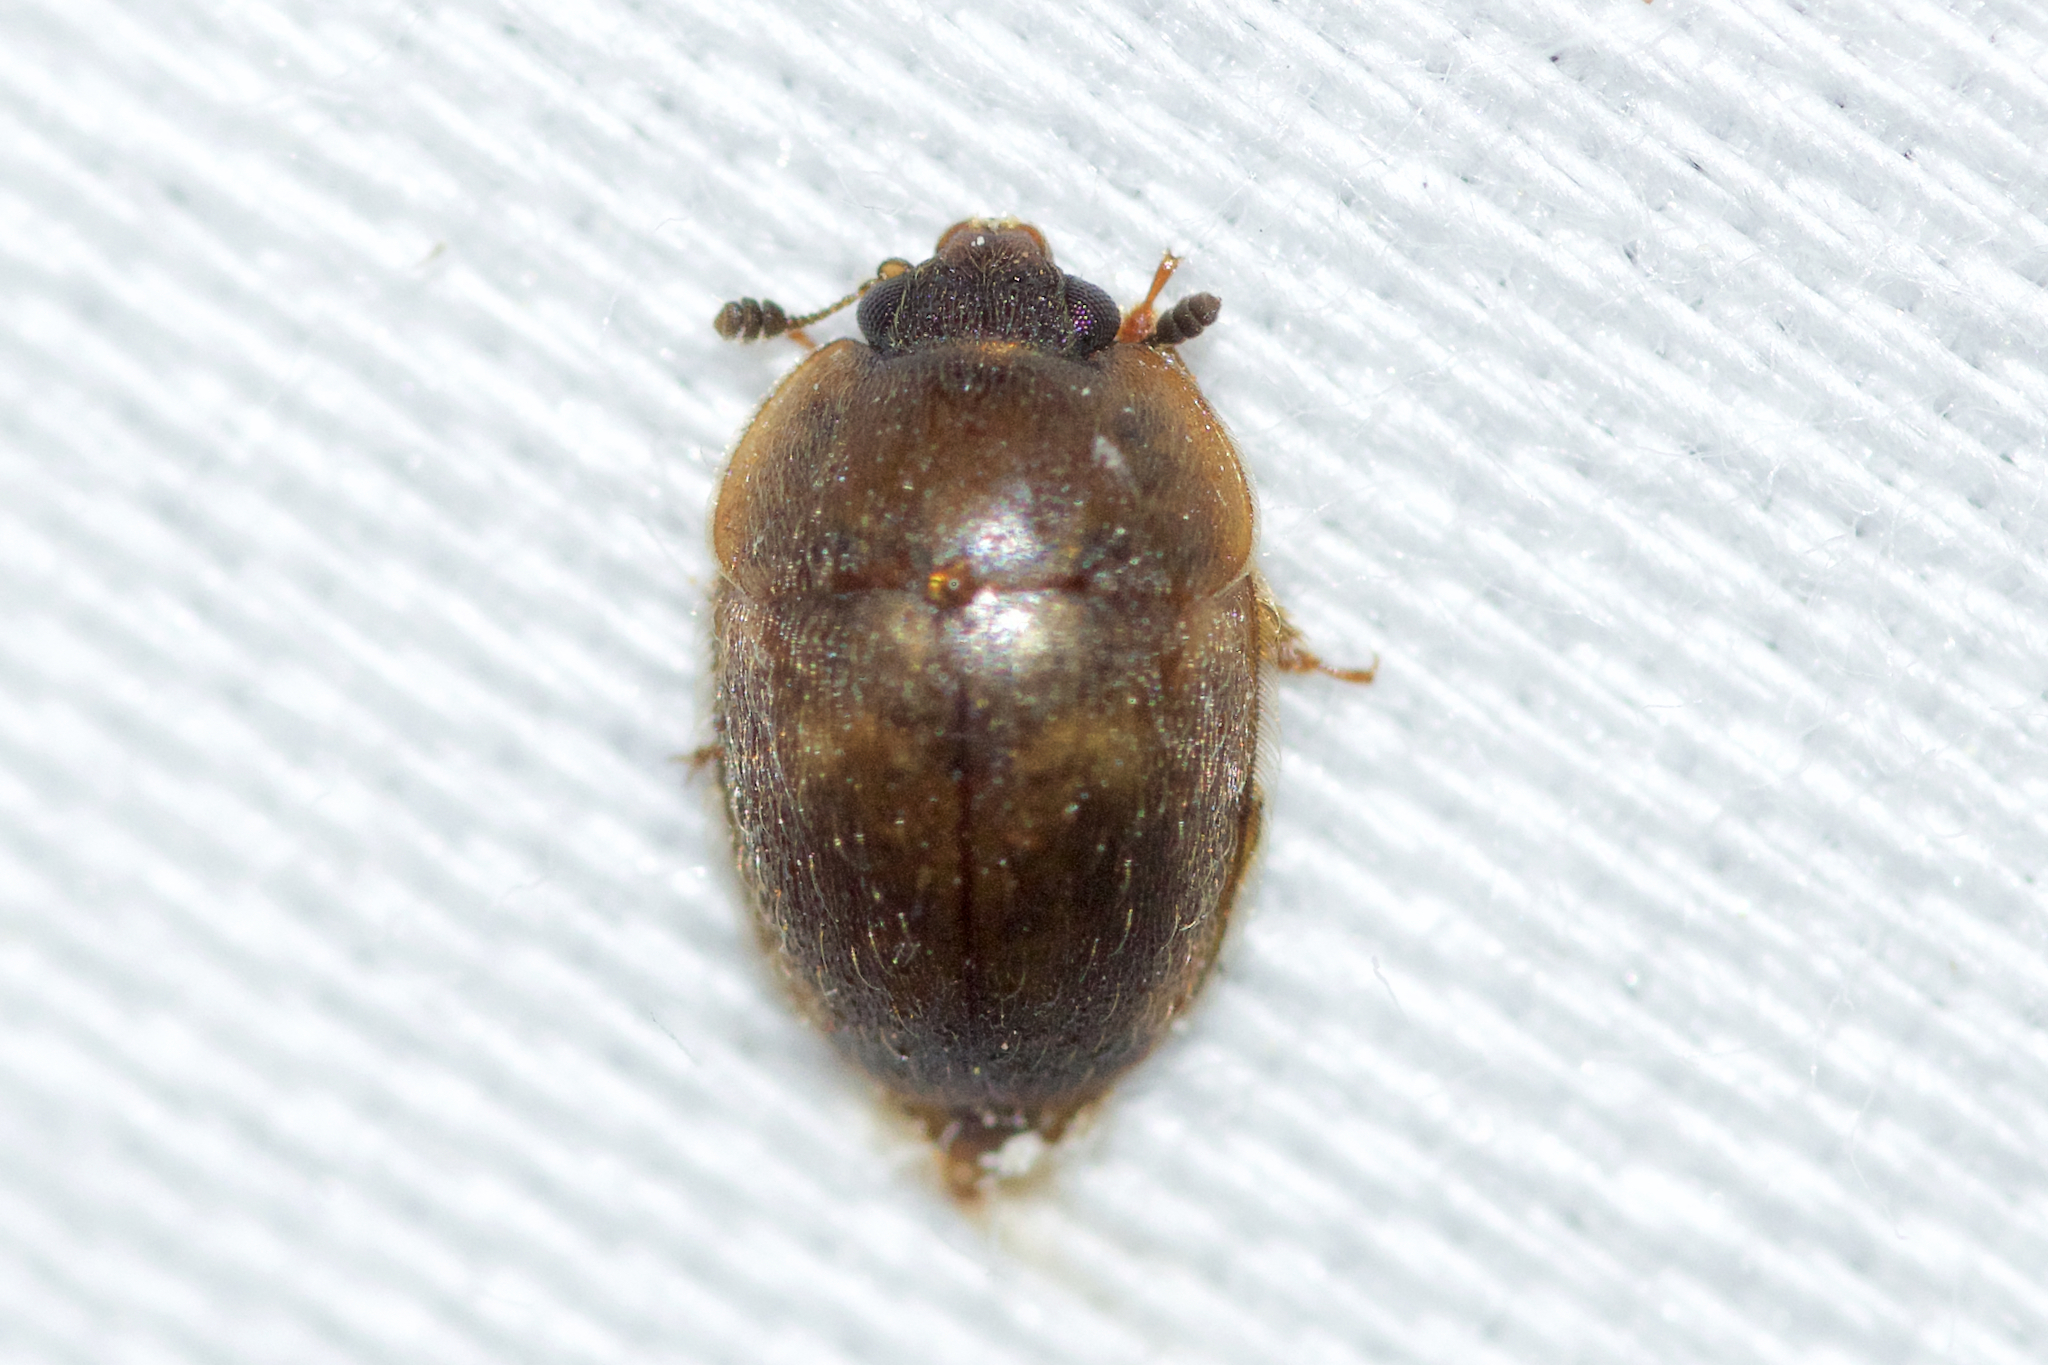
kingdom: Animalia
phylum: Arthropoda
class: Insecta
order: Coleoptera
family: Nitidulidae
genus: Amphicrossus
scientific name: Amphicrossus ciliatus
